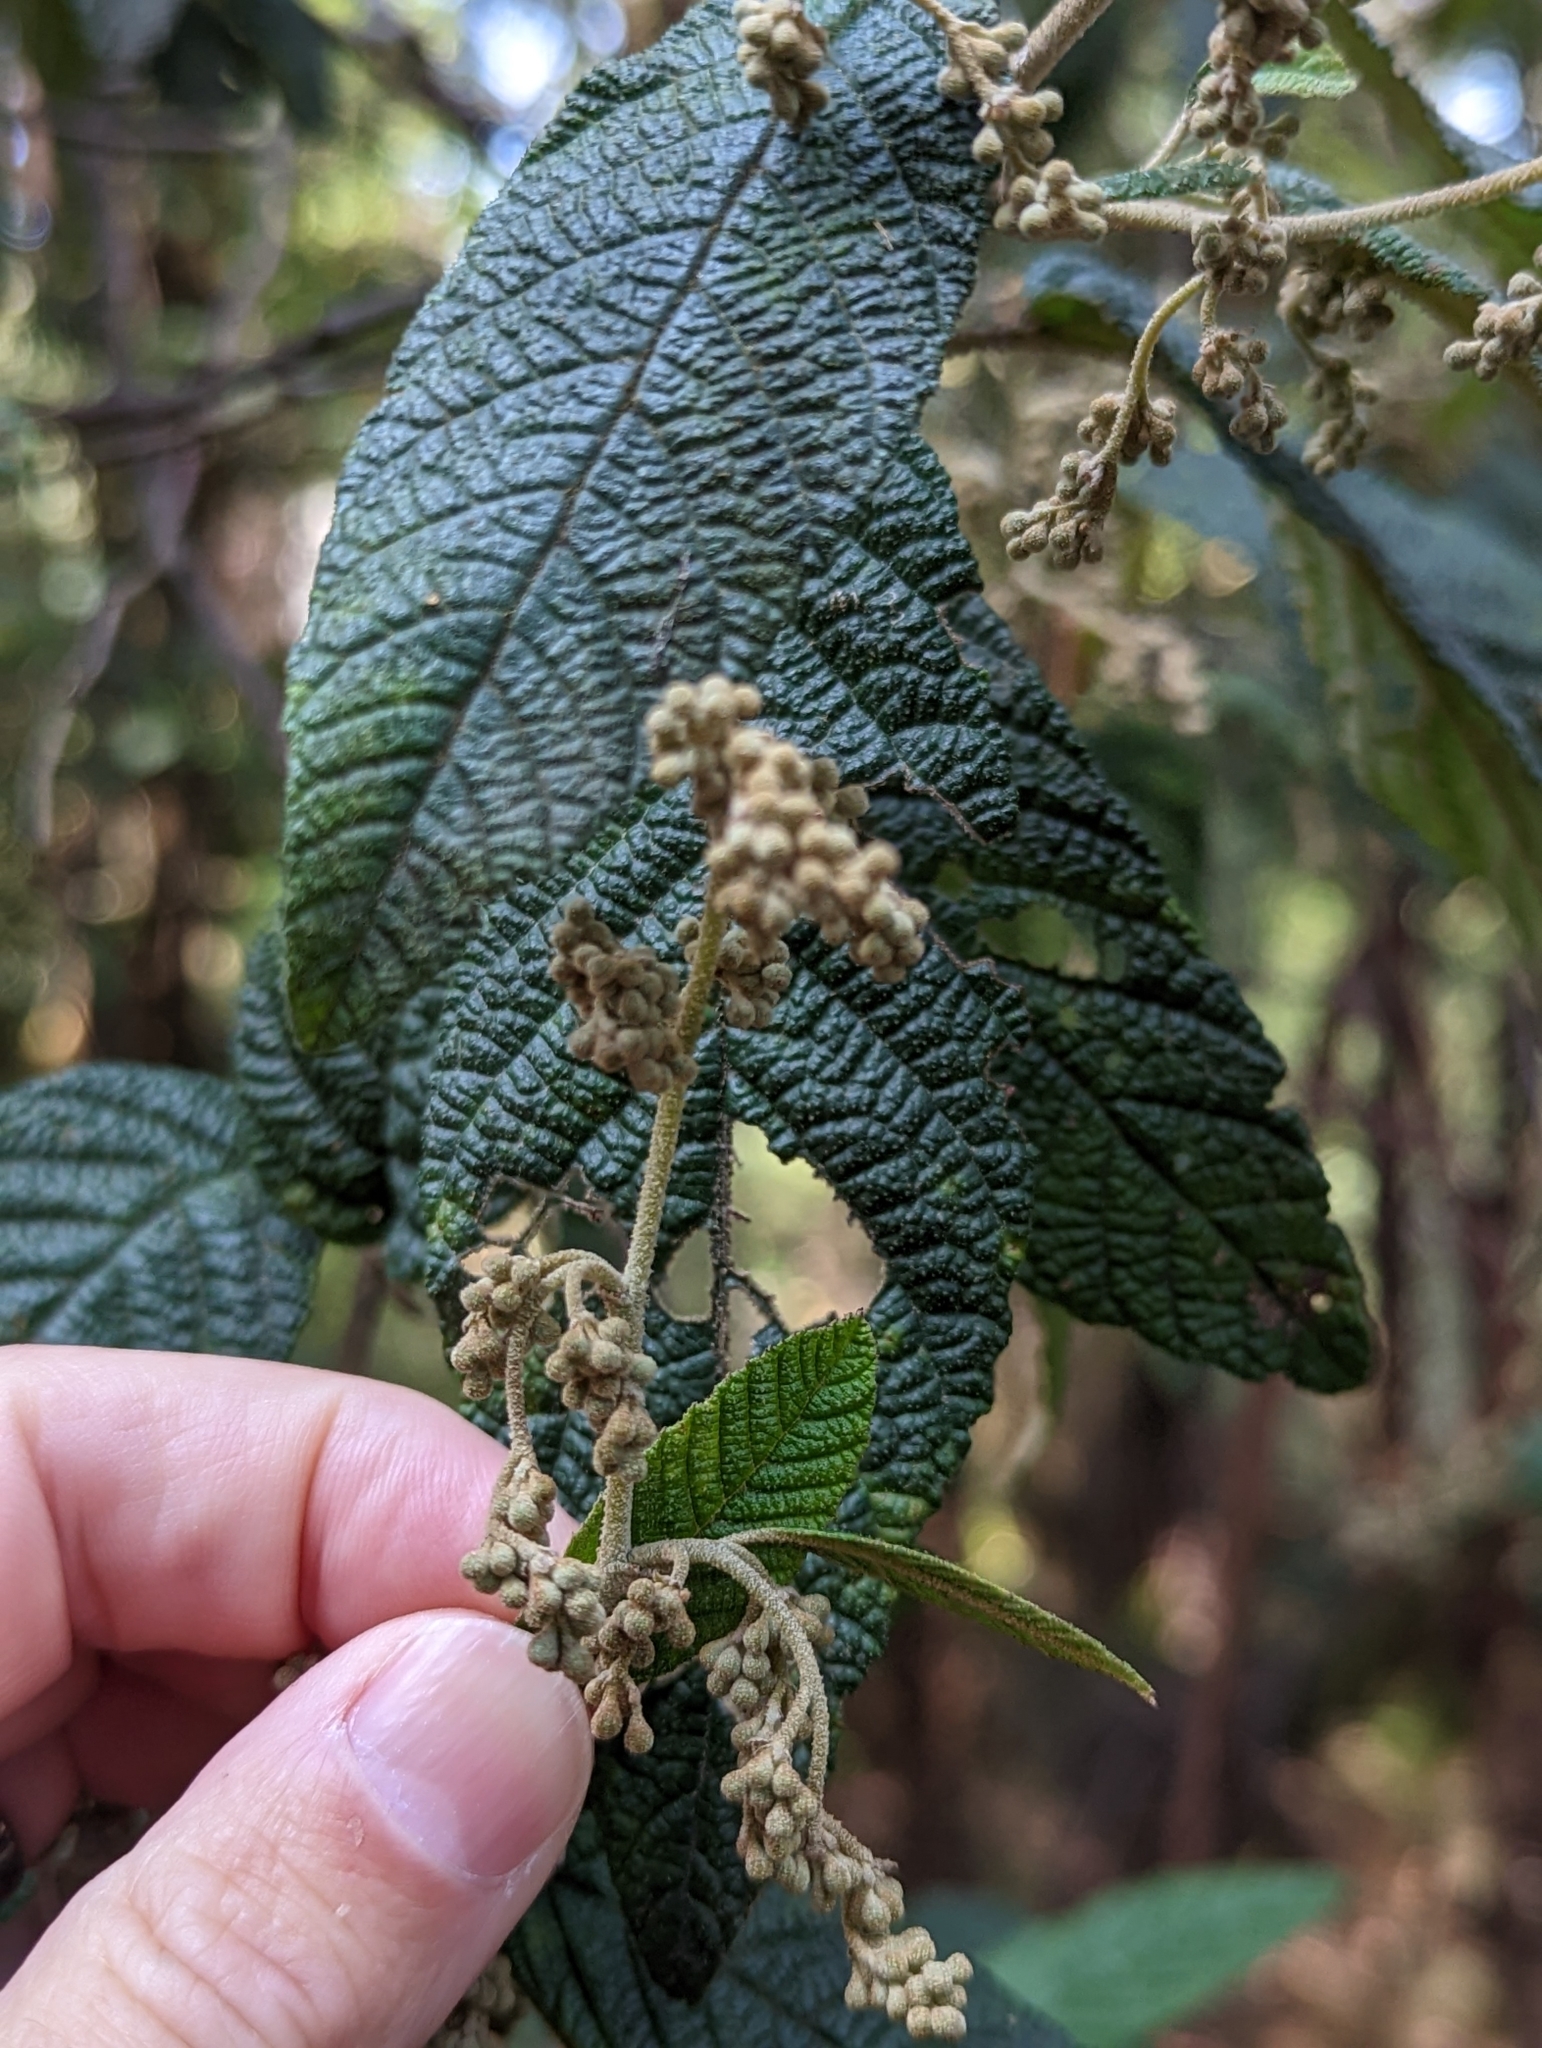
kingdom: Plantae
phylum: Tracheophyta
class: Magnoliopsida
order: Rosales
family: Rhamnaceae
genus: Pomaderris
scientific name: Pomaderris aspera
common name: Hazel pomaderris
